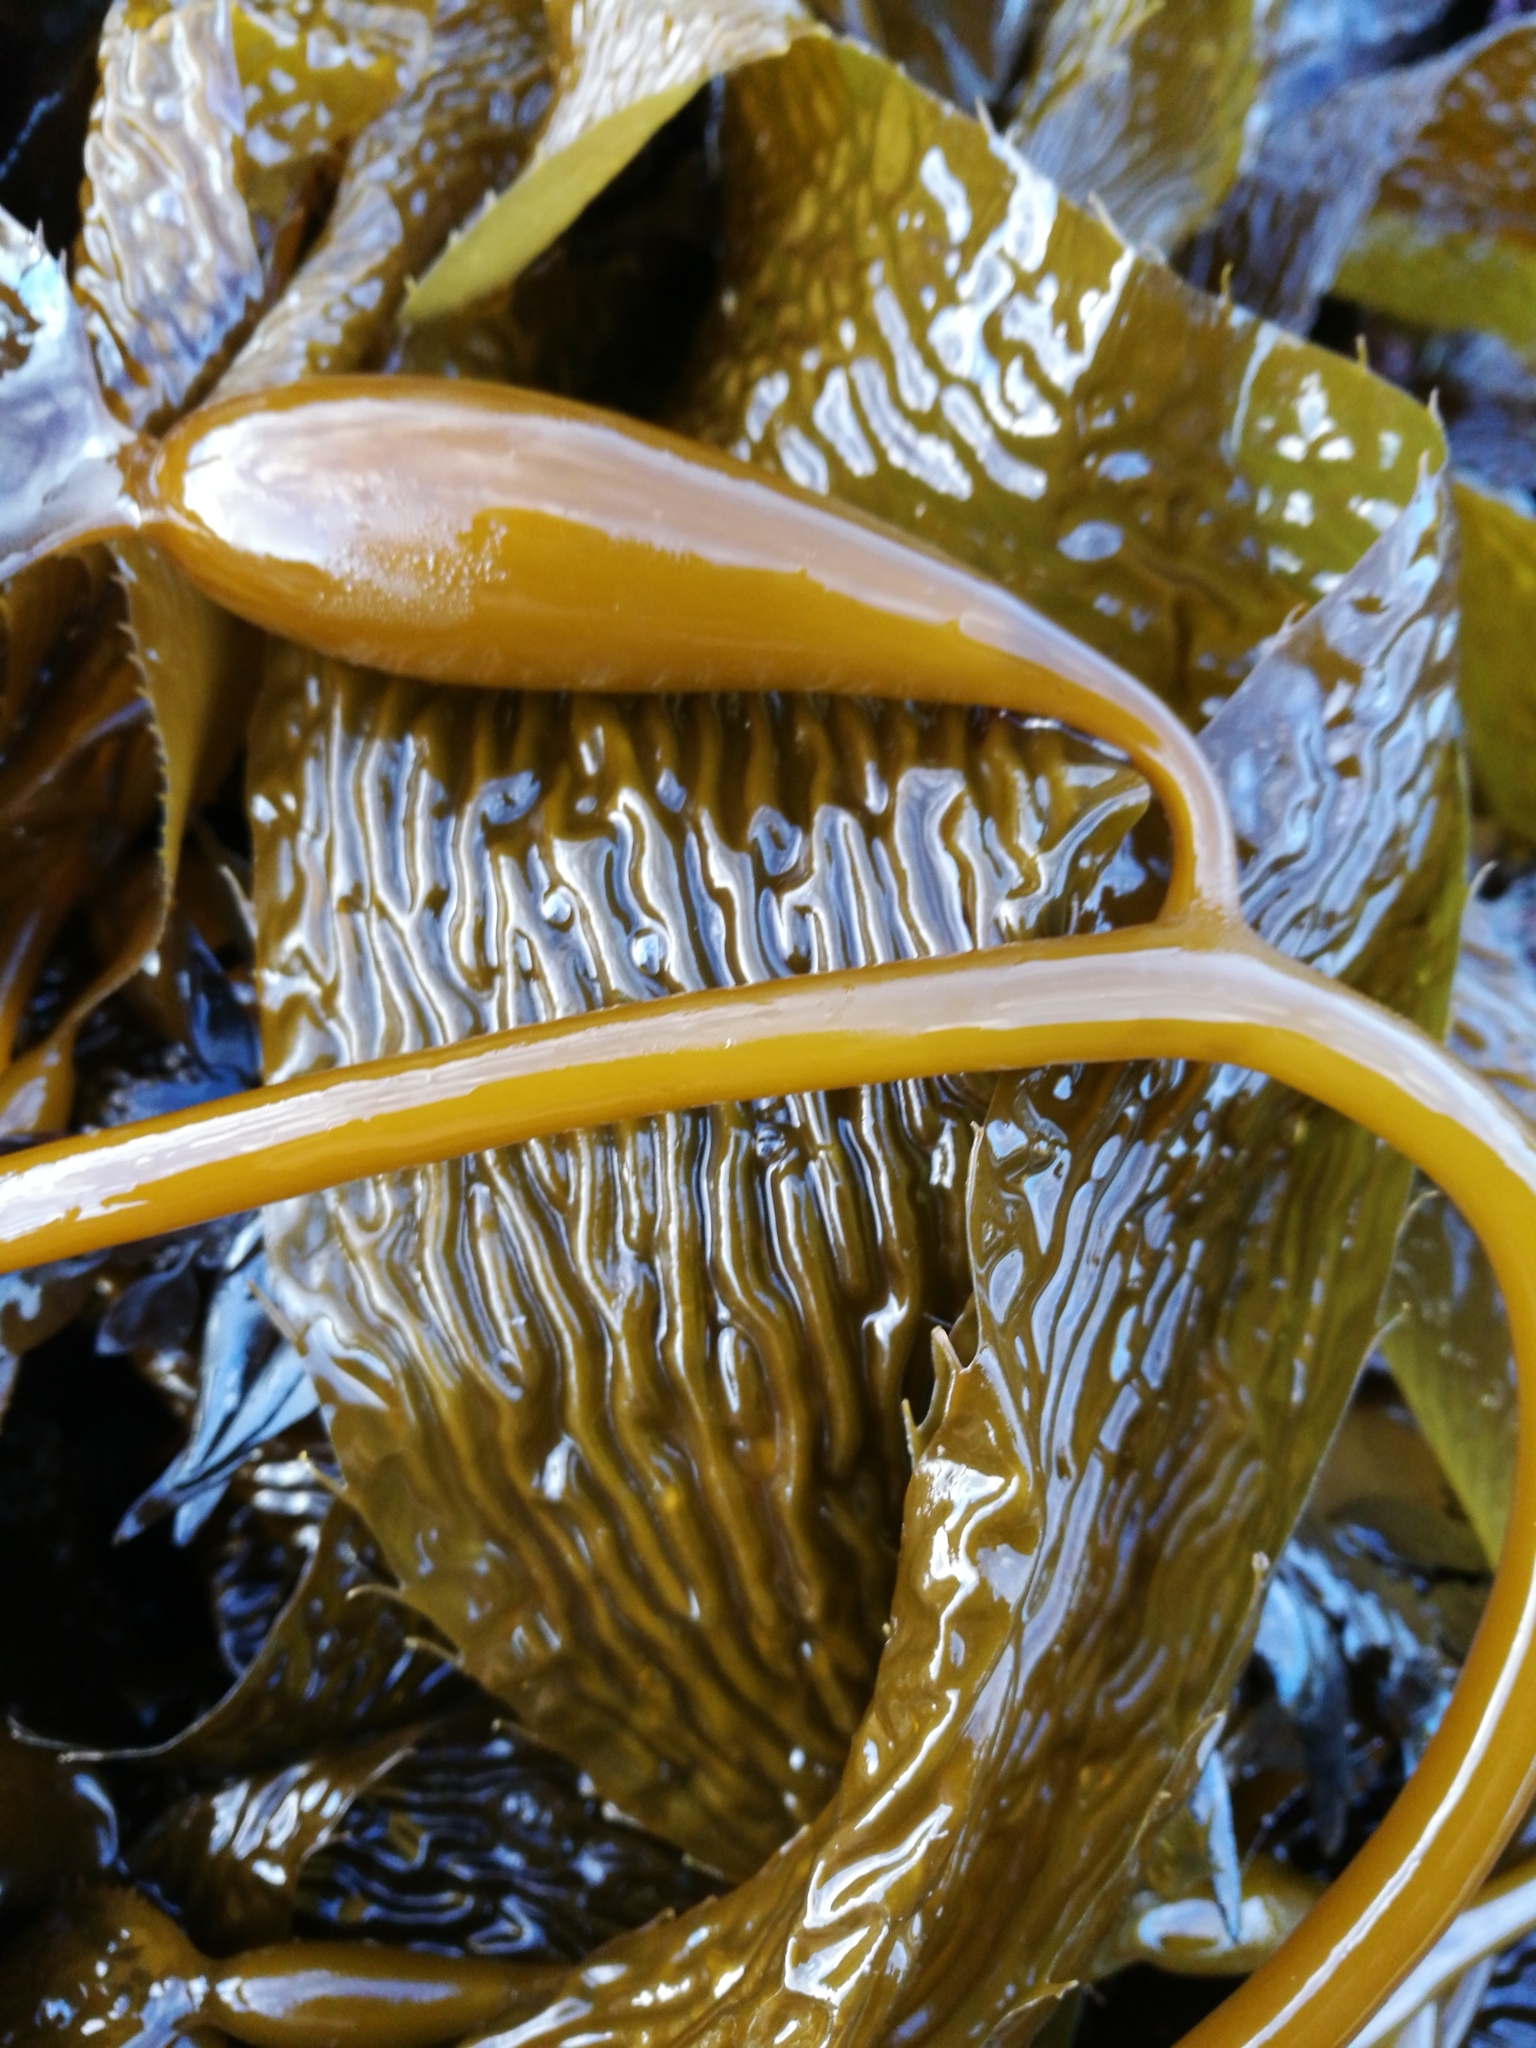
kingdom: Chromista
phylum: Ochrophyta
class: Phaeophyceae
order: Laminariales
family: Laminariaceae
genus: Macrocystis
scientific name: Macrocystis pyrifera
